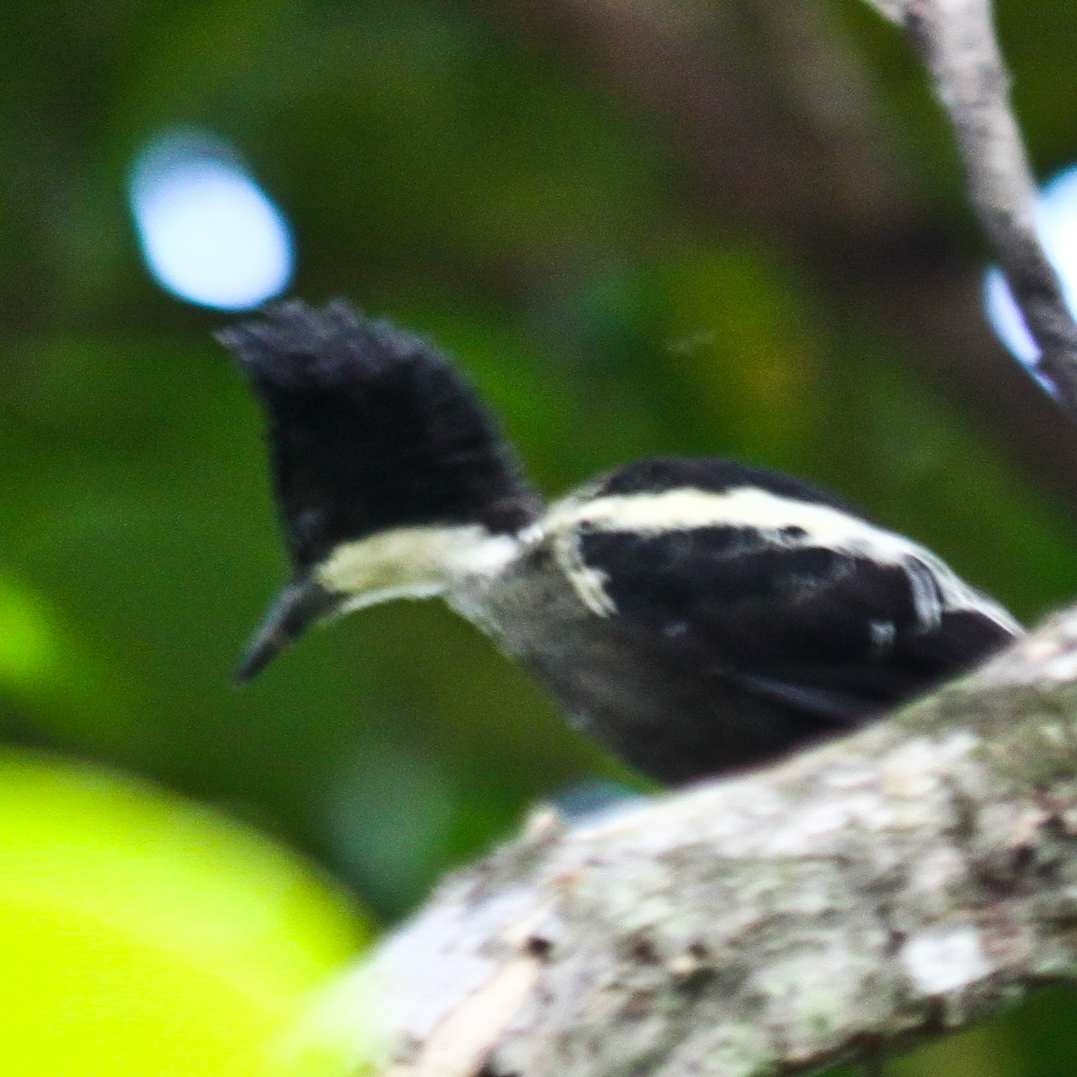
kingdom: Animalia
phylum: Chordata
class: Aves
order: Piciformes
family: Picidae
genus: Hemicircus
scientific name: Hemicircus canente
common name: Heart-spotted woodpecker
